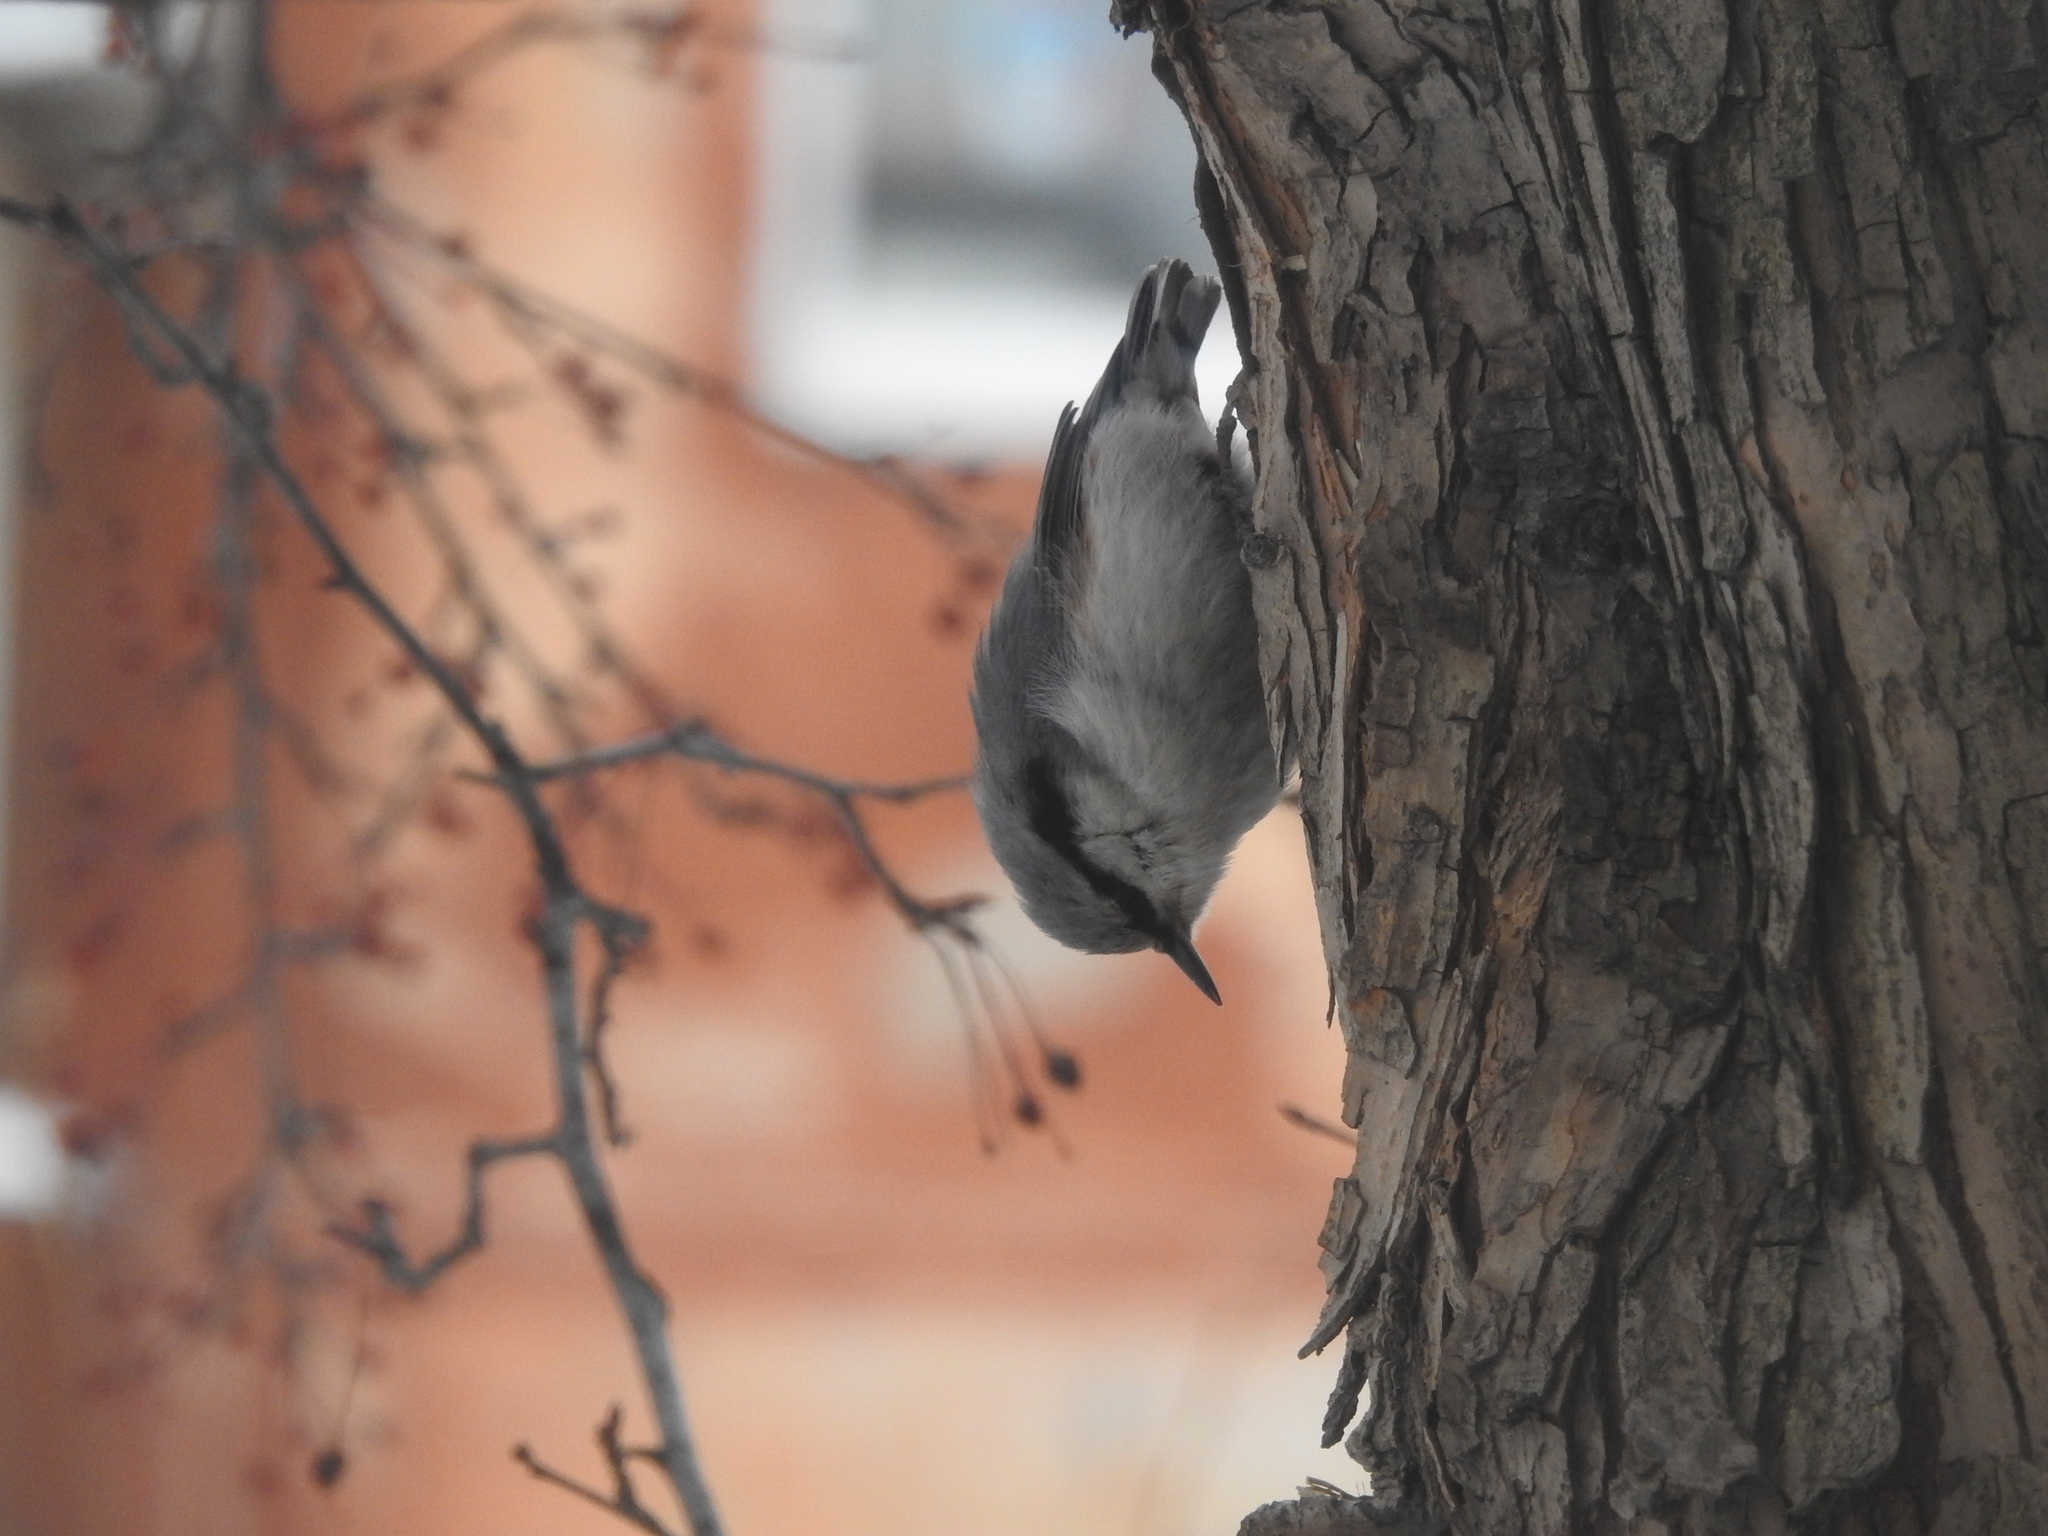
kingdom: Animalia
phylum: Chordata
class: Aves
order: Passeriformes
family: Sittidae
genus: Sitta
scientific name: Sitta europaea
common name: Eurasian nuthatch
